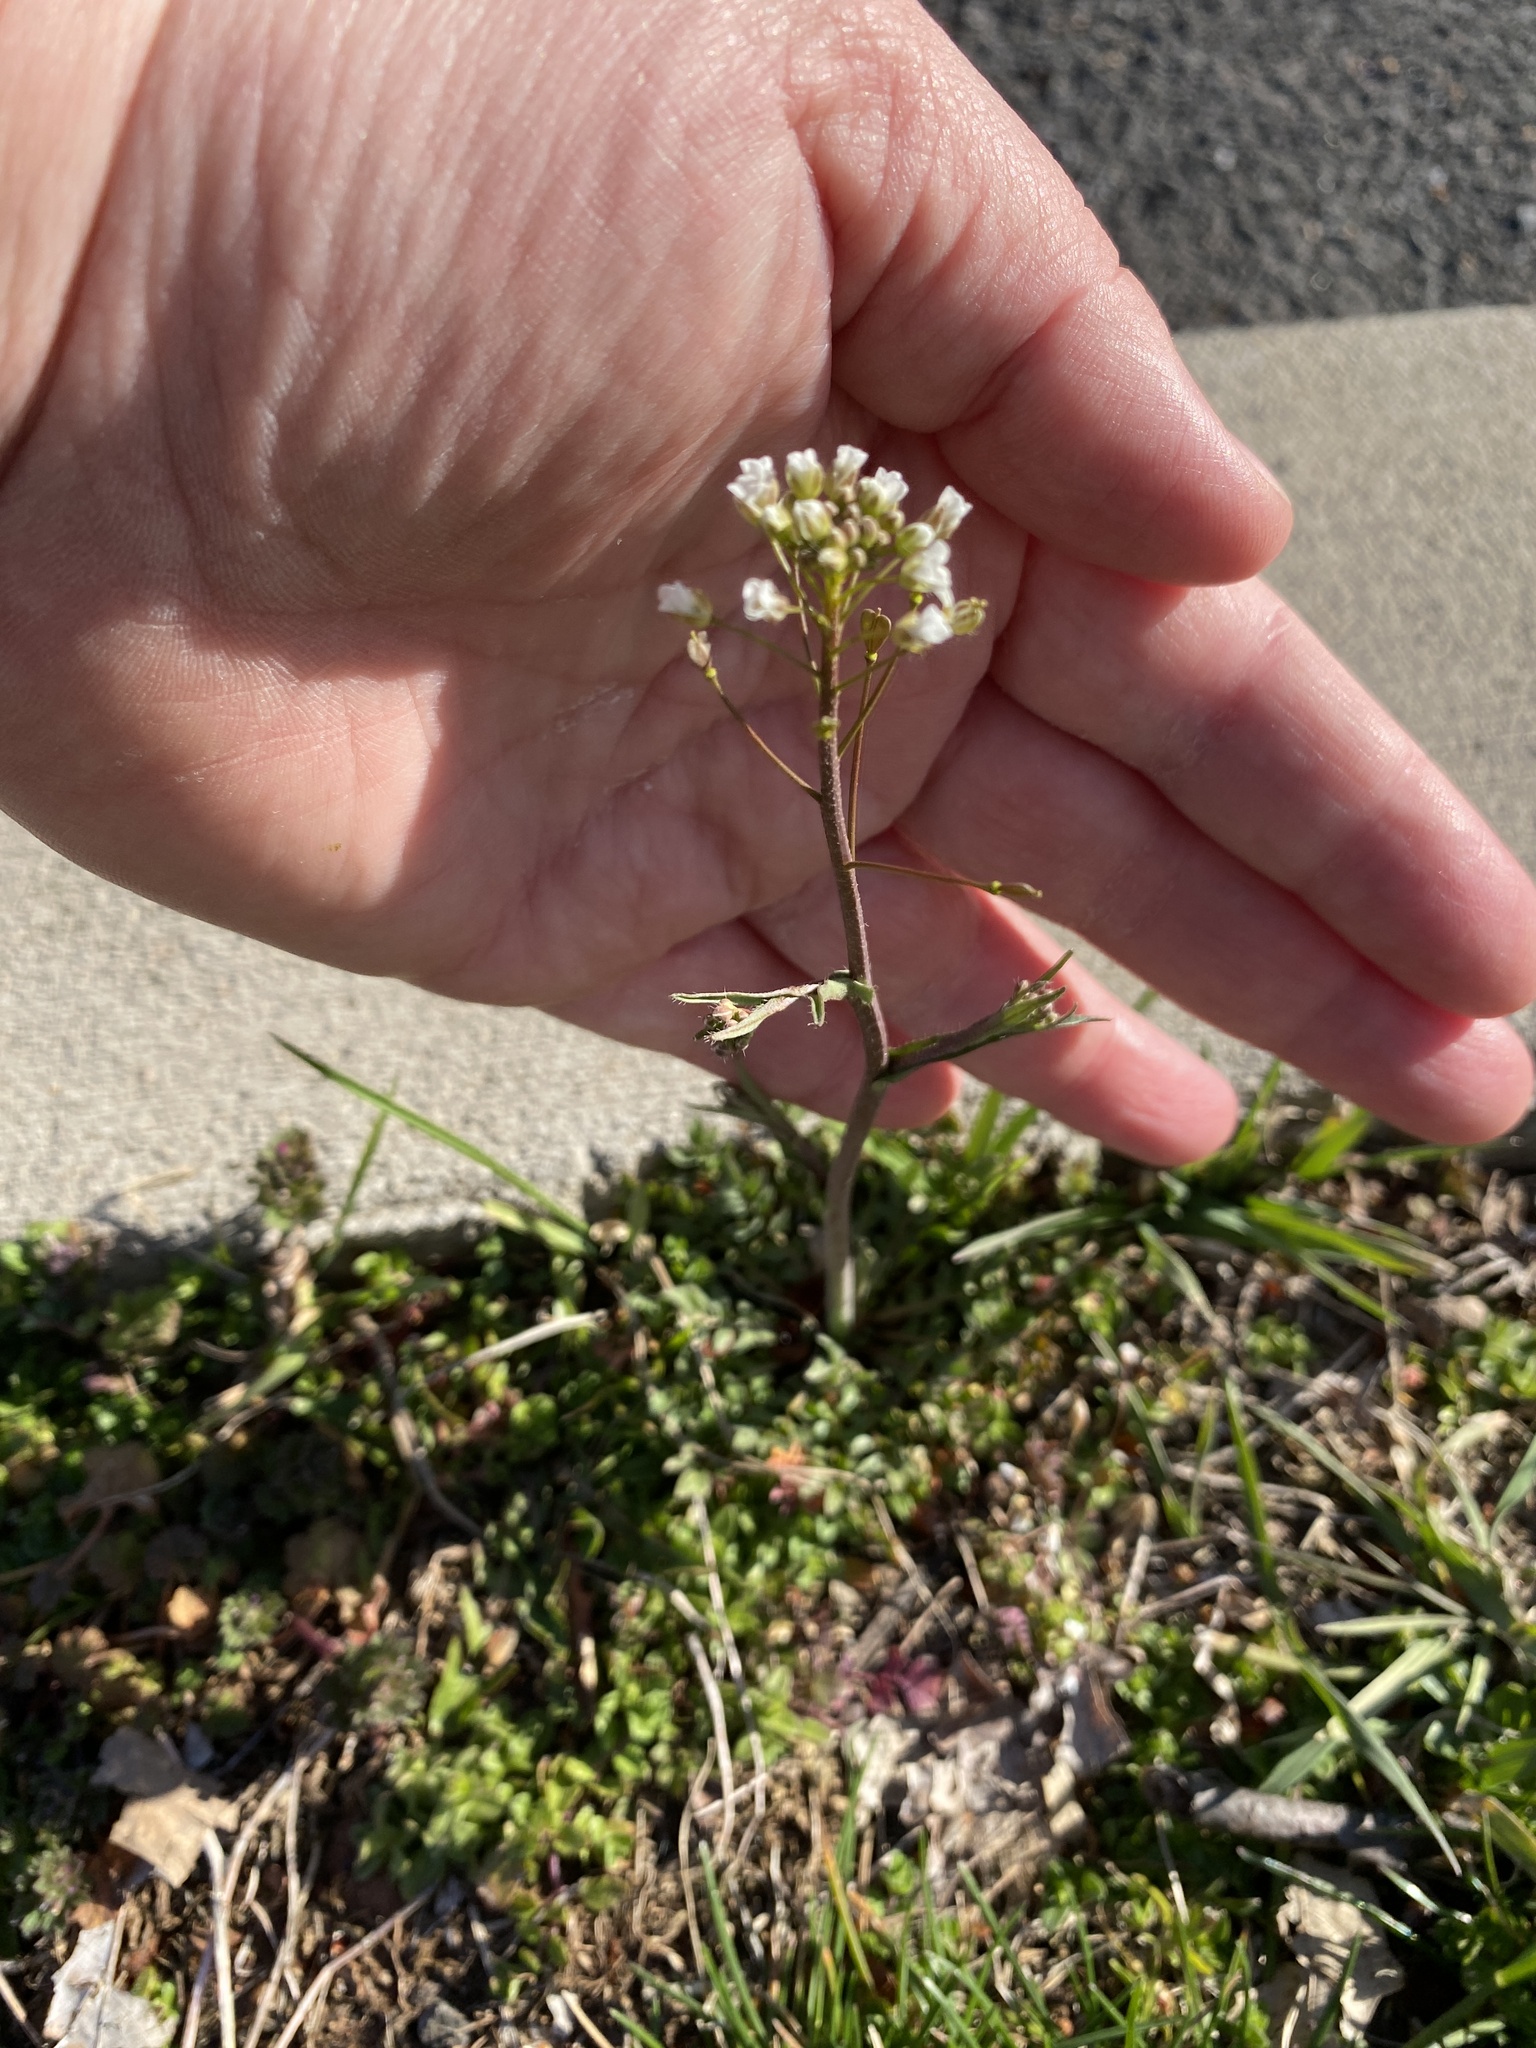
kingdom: Plantae
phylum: Tracheophyta
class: Magnoliopsida
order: Brassicales
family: Brassicaceae
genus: Capsella
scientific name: Capsella bursa-pastoris
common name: Shepherd's purse
